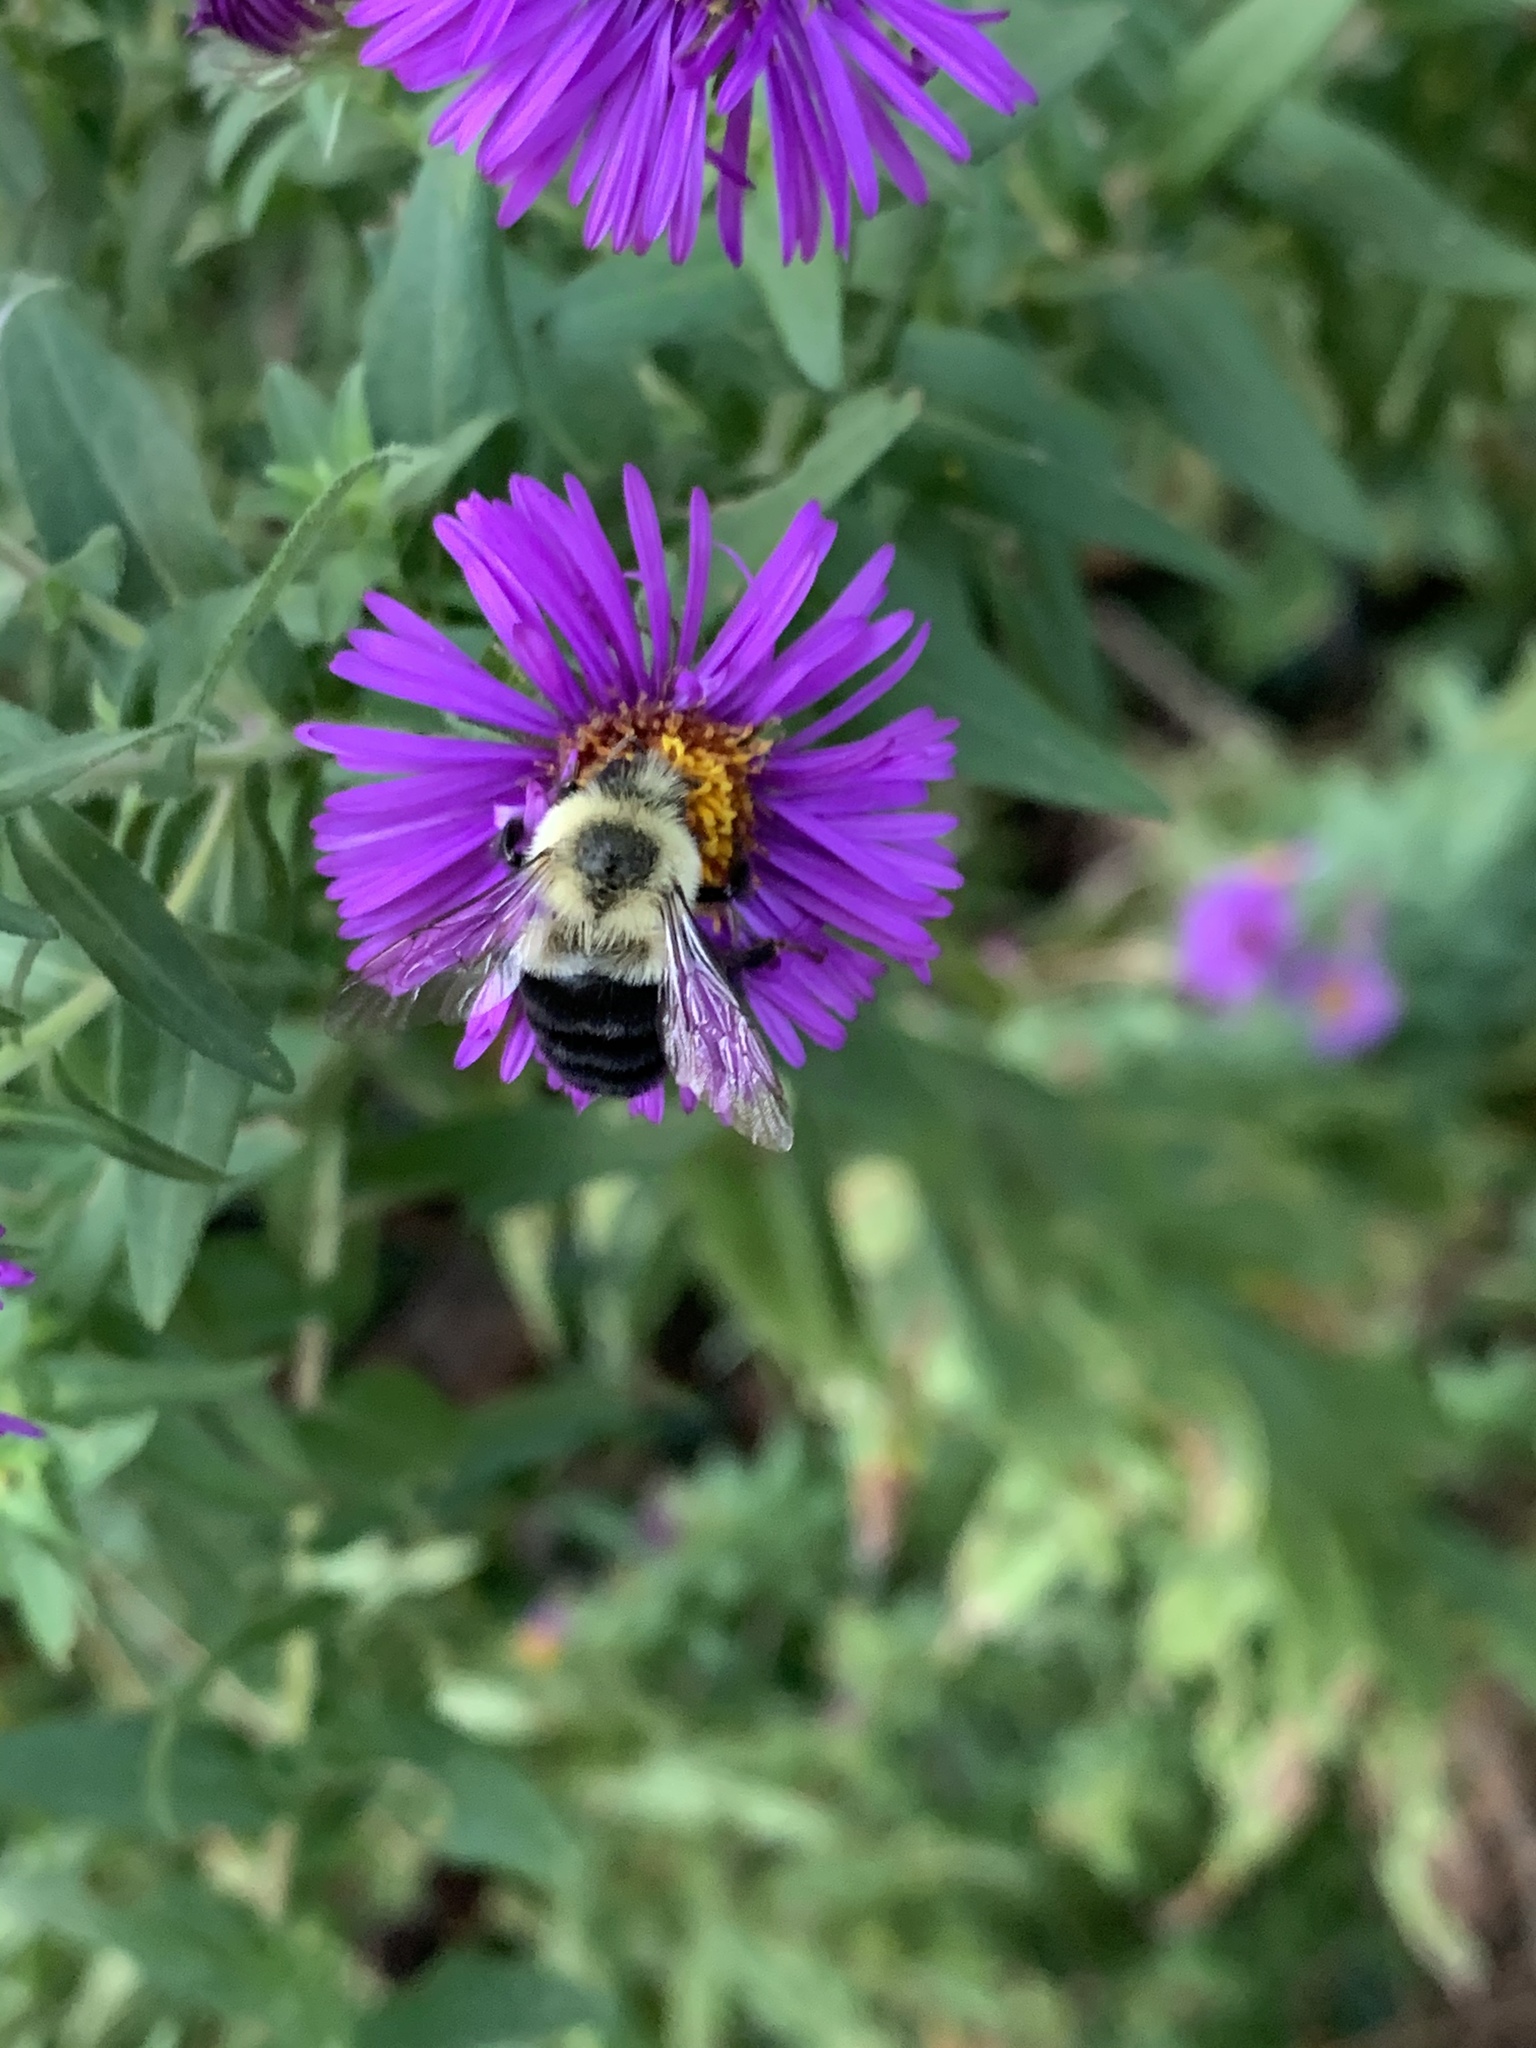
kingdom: Animalia
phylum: Arthropoda
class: Insecta
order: Hymenoptera
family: Apidae
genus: Bombus
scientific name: Bombus impatiens
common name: Common eastern bumble bee
